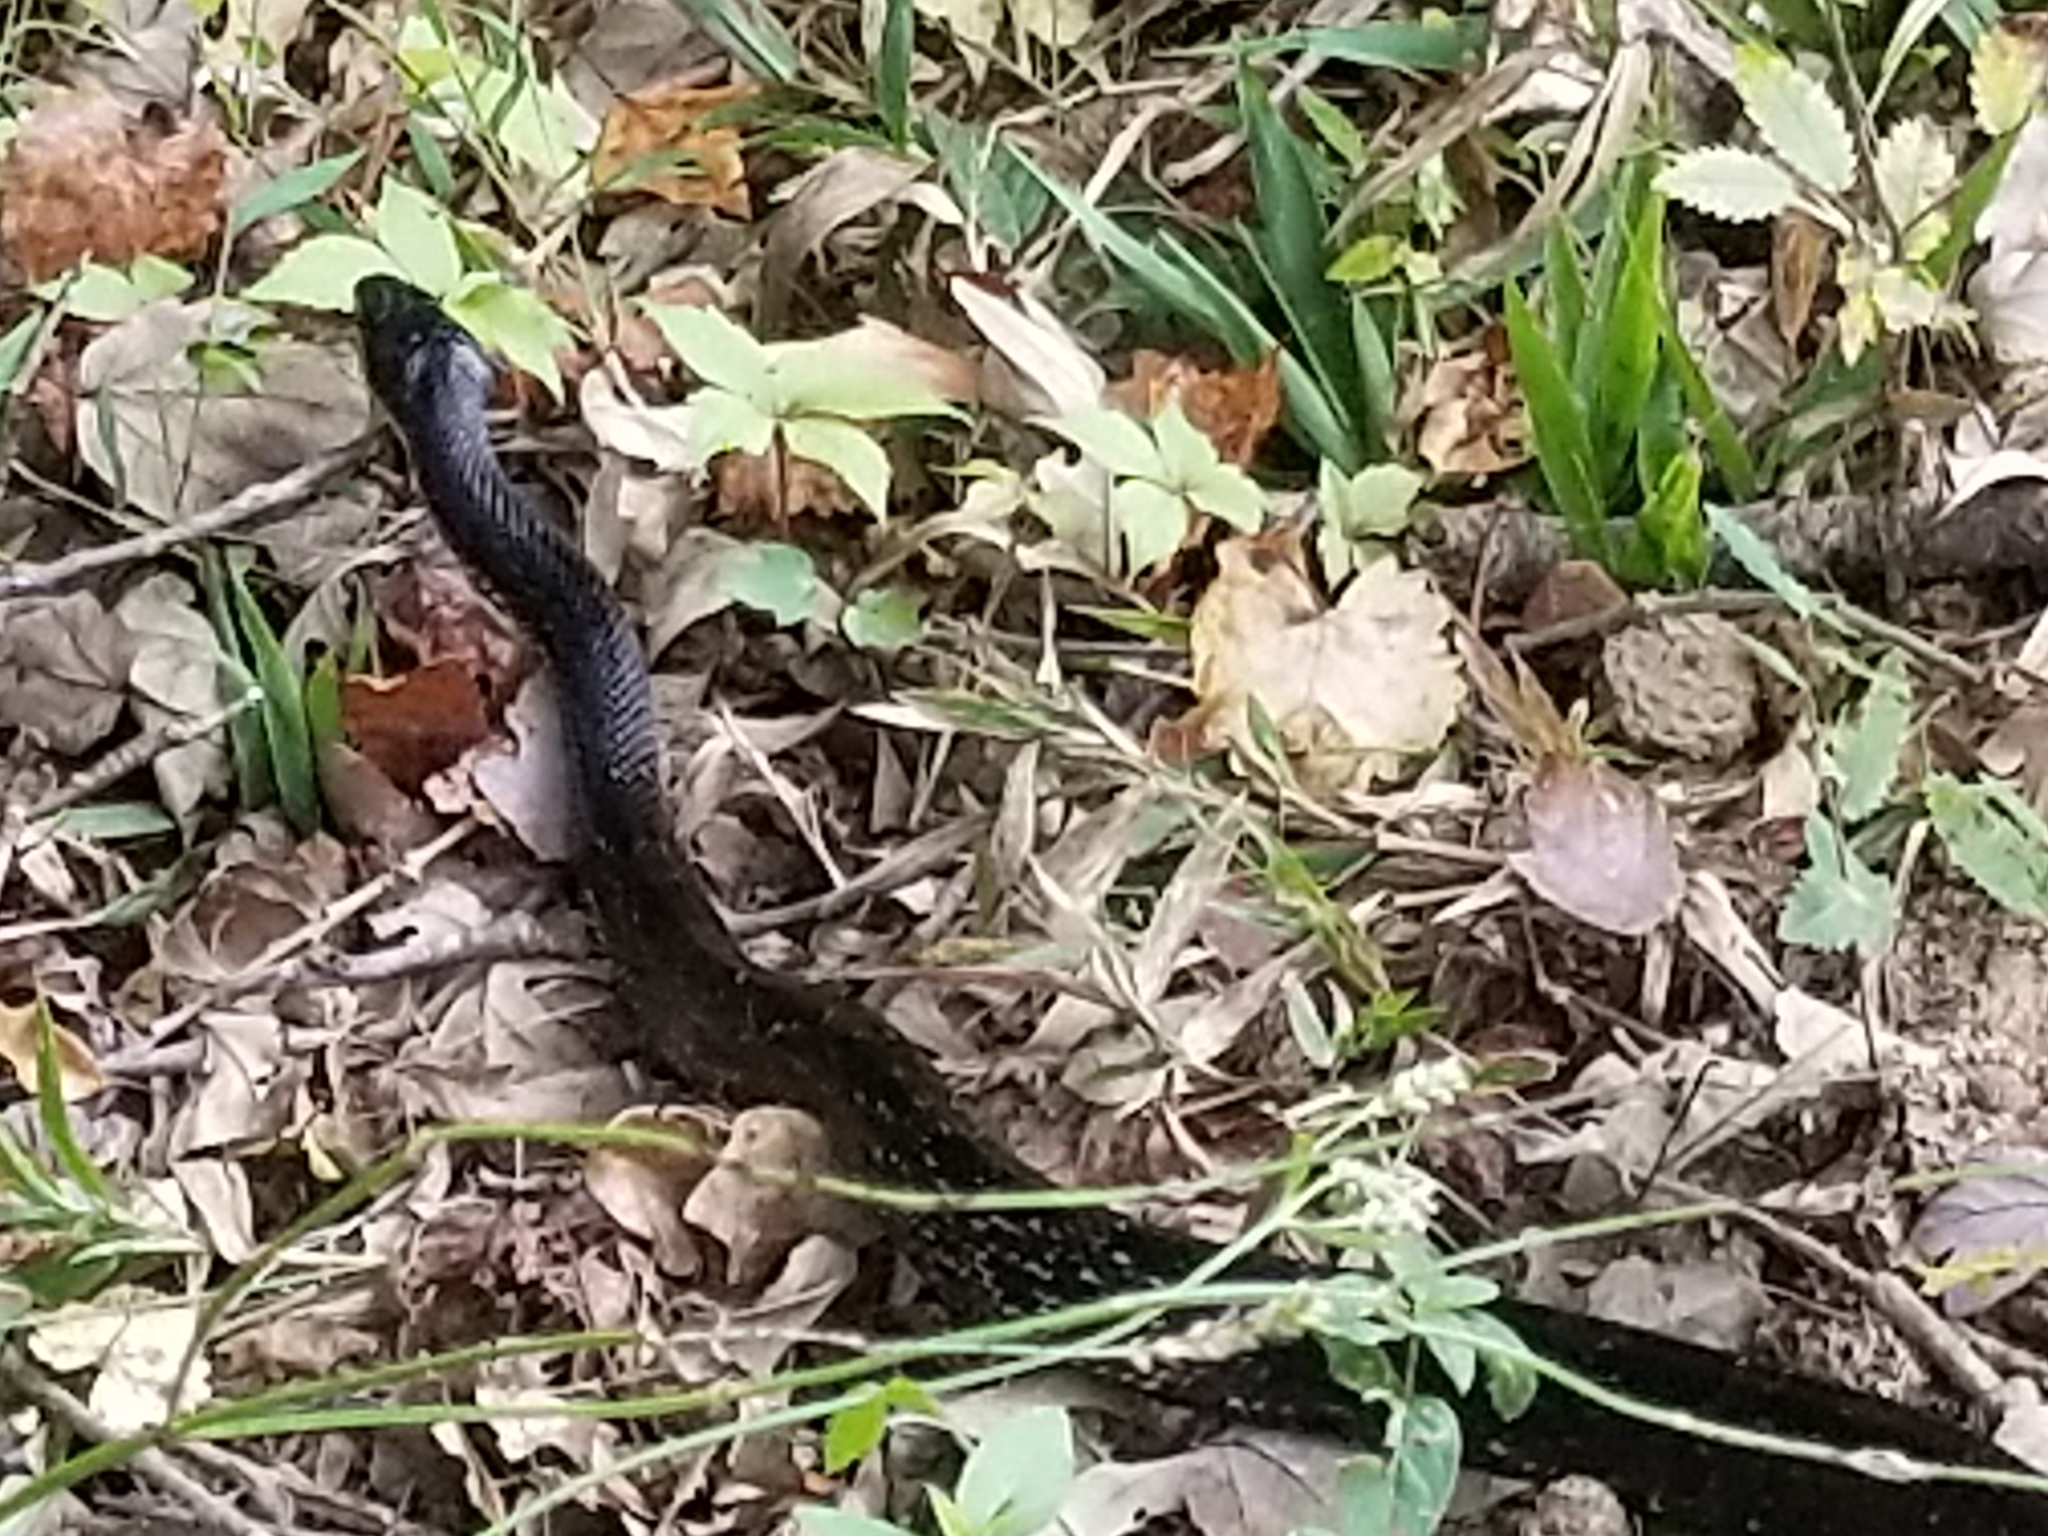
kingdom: Animalia
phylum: Chordata
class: Squamata
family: Colubridae
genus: Pantherophis
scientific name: Pantherophis alleghaniensis
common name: Eastern rat snake
